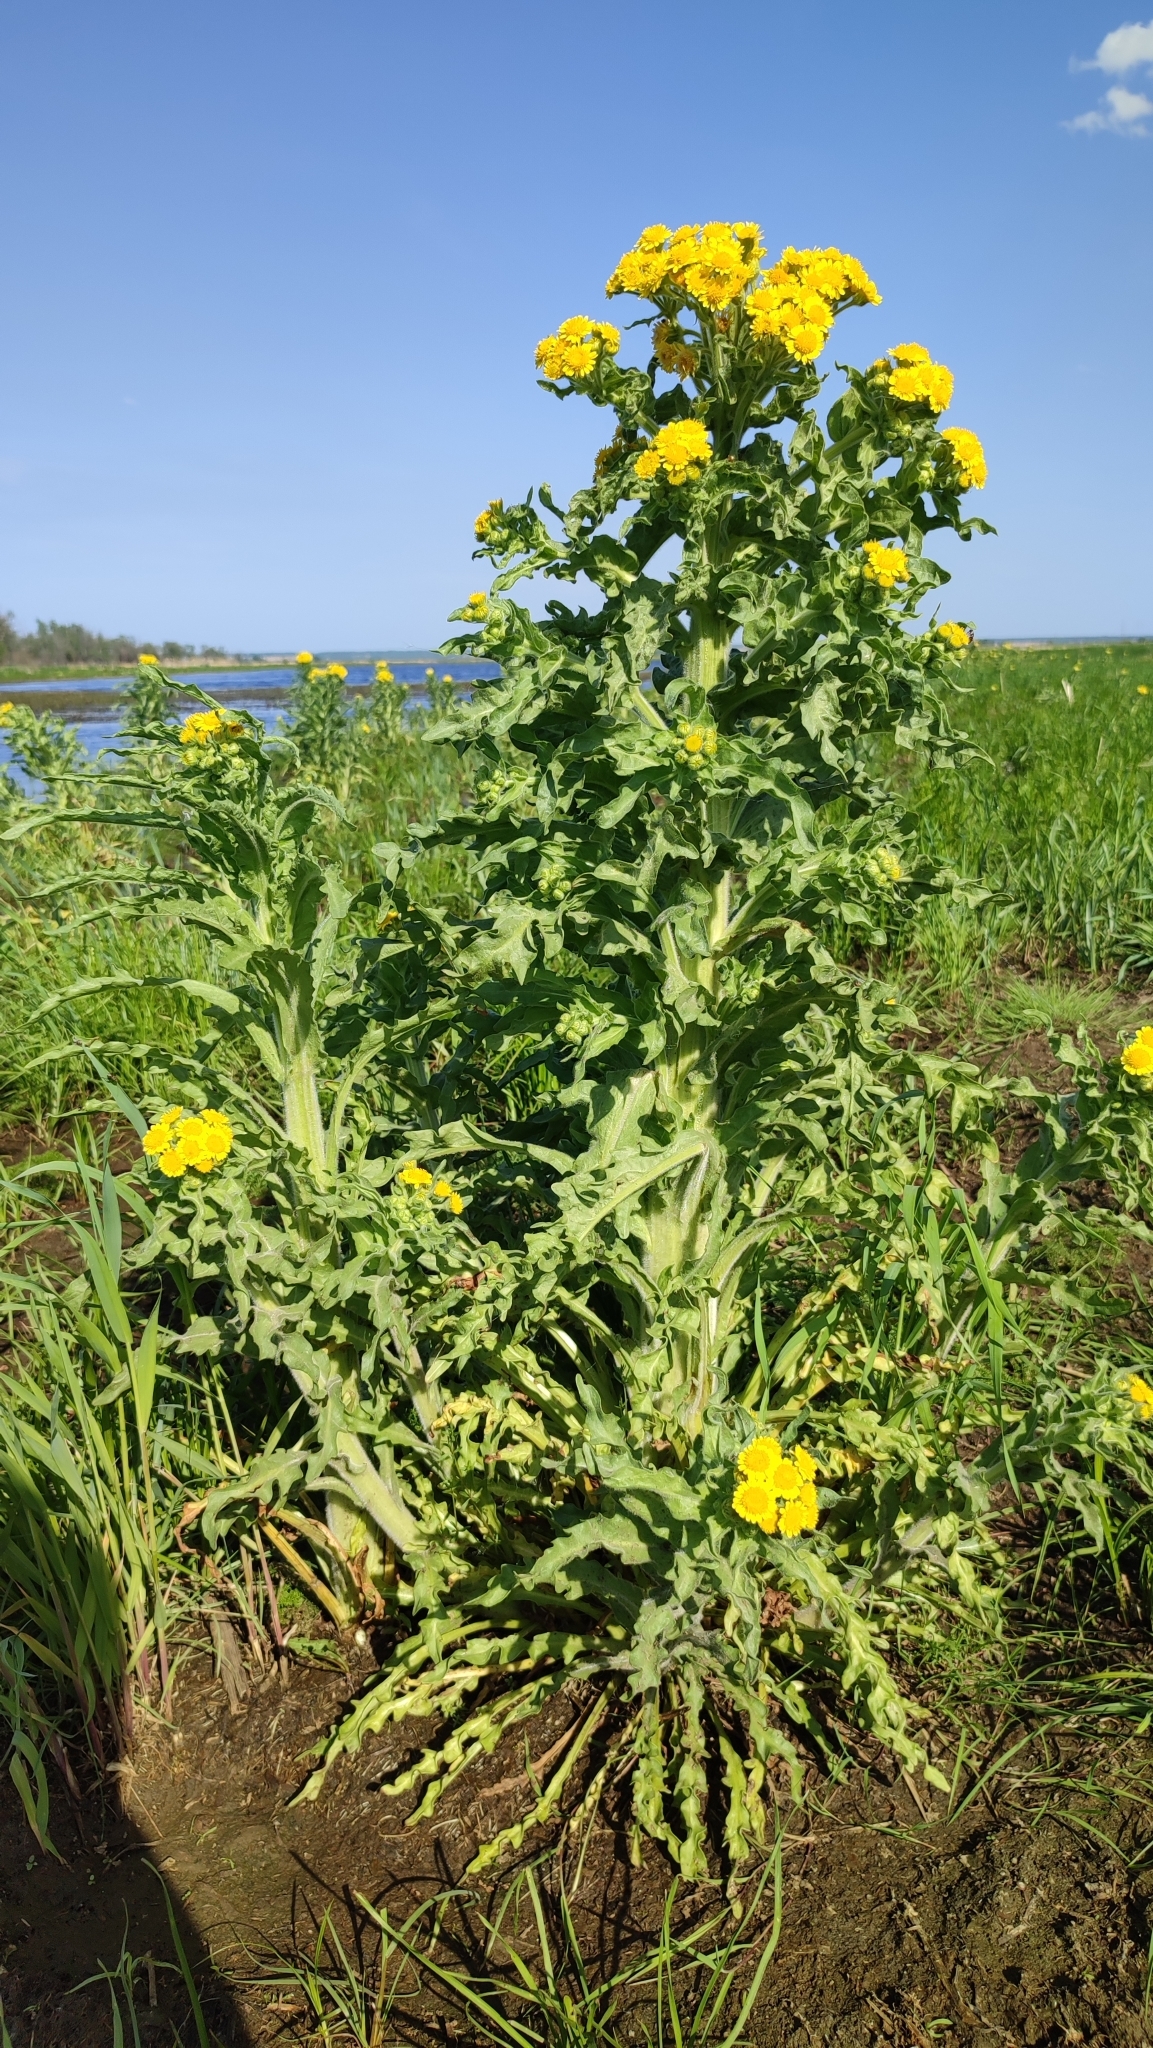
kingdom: Plantae
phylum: Tracheophyta
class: Magnoliopsida
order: Asterales
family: Asteraceae
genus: Tephroseris
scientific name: Tephroseris palustris
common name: Marsh fleawort
